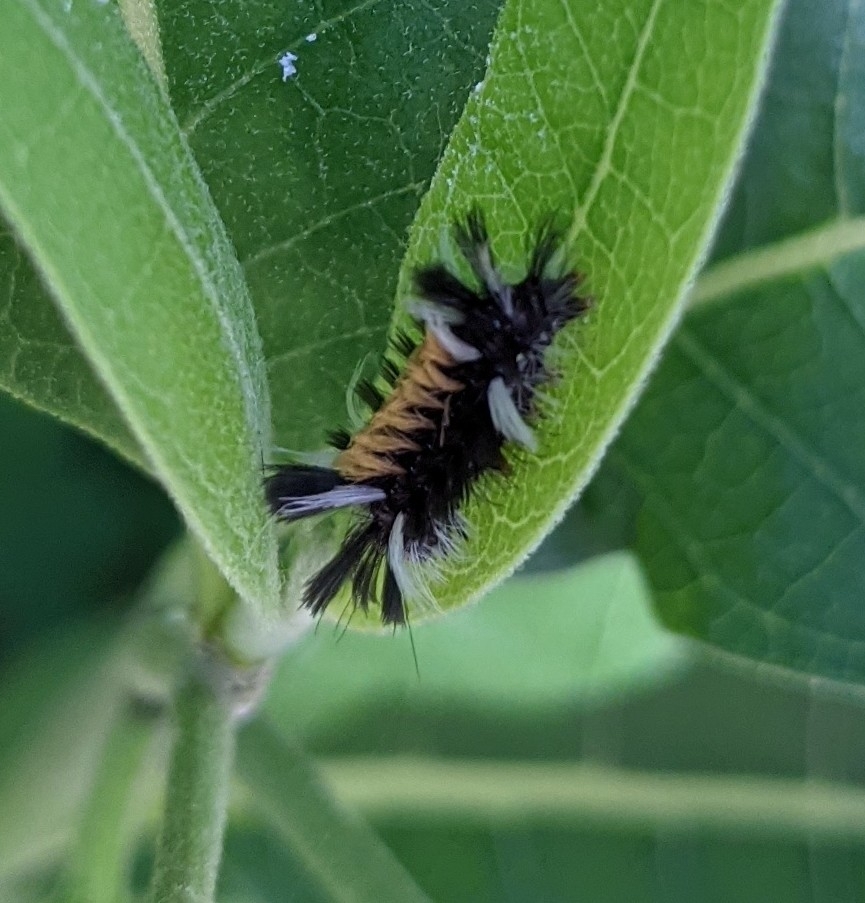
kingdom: Animalia
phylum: Arthropoda
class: Insecta
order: Lepidoptera
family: Erebidae
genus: Euchaetes
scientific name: Euchaetes egle
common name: Milkweed tussock moth
